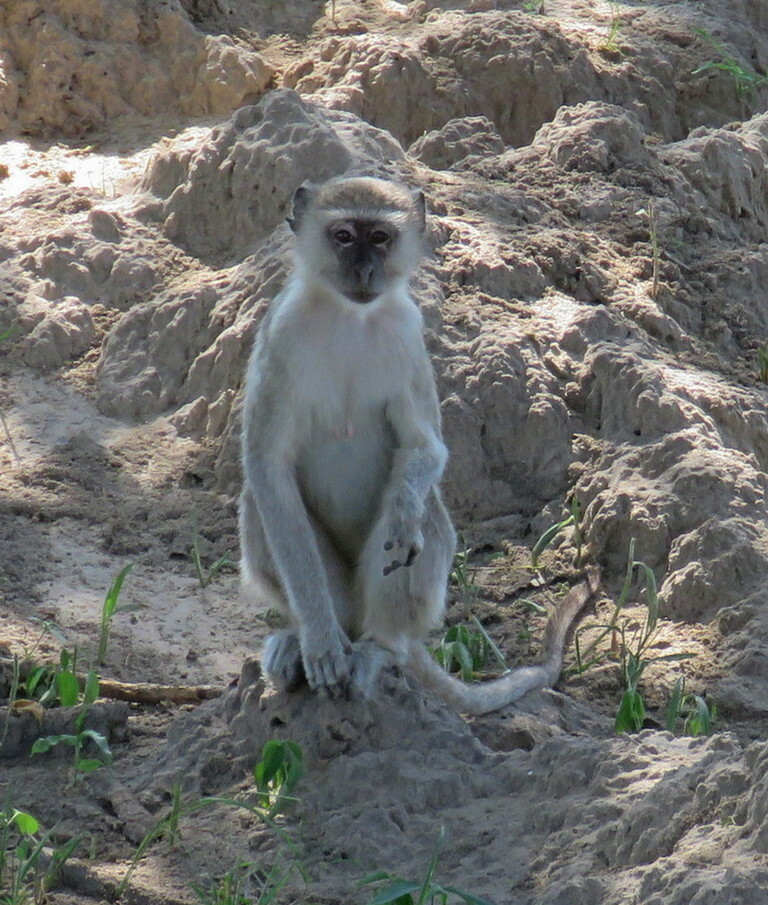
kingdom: Animalia
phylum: Chordata
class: Mammalia
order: Primates
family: Cercopithecidae
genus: Chlorocebus
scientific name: Chlorocebus pygerythrus
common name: Vervet monkey
